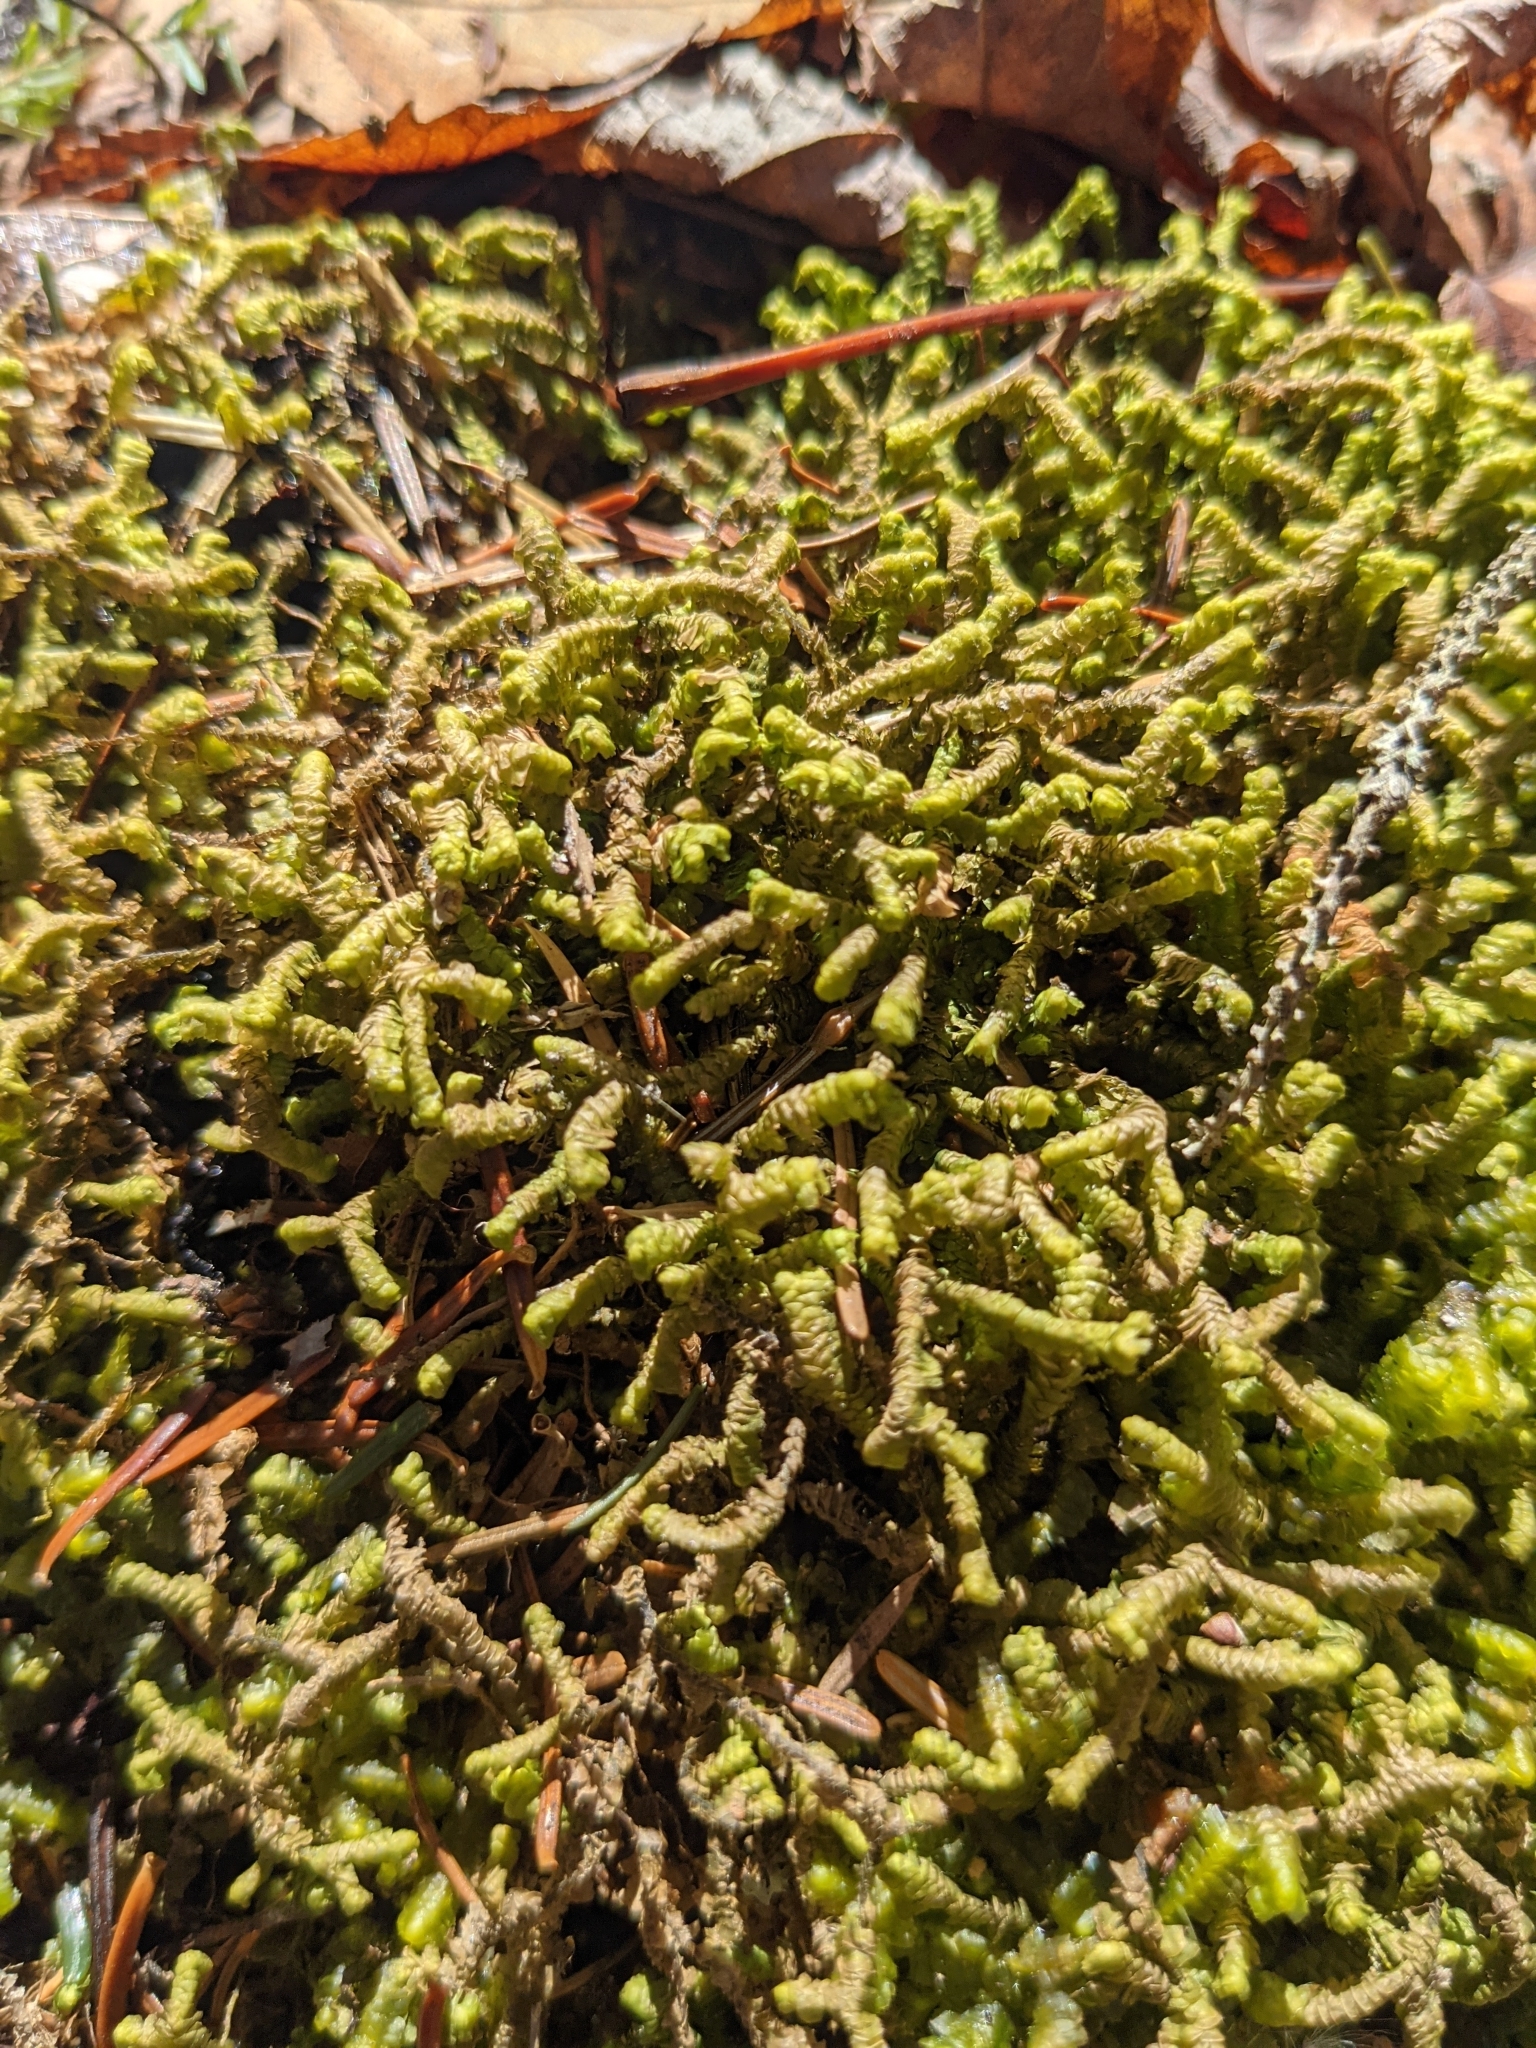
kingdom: Plantae
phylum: Marchantiophyta
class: Jungermanniopsida
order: Jungermanniales
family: Lepidoziaceae
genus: Bazzania
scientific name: Bazzania trilobata
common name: Three-lobed whipwort
